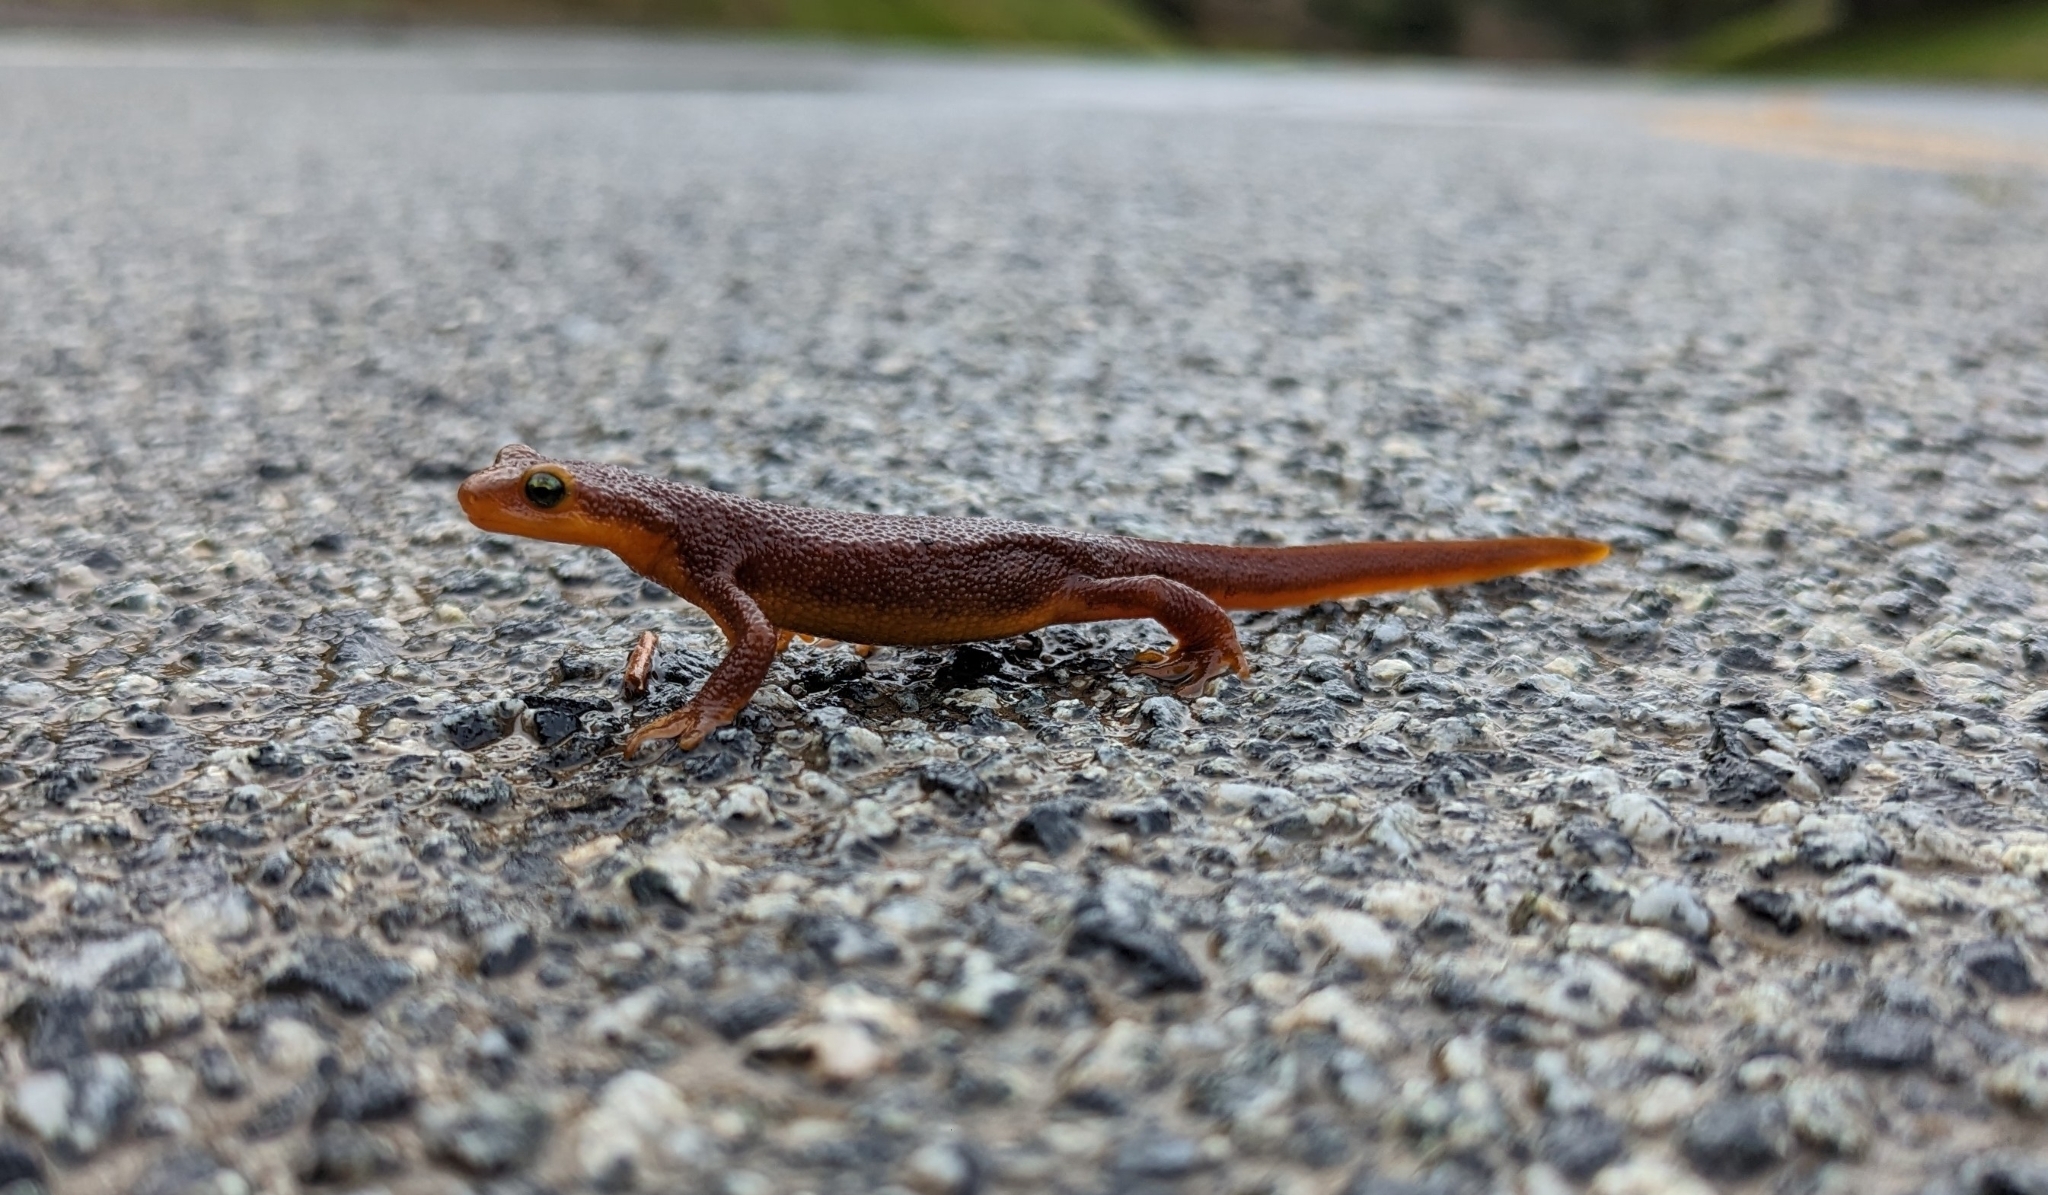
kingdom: Animalia
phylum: Chordata
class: Amphibia
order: Caudata
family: Salamandridae
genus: Taricha
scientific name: Taricha torosa
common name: California newt
